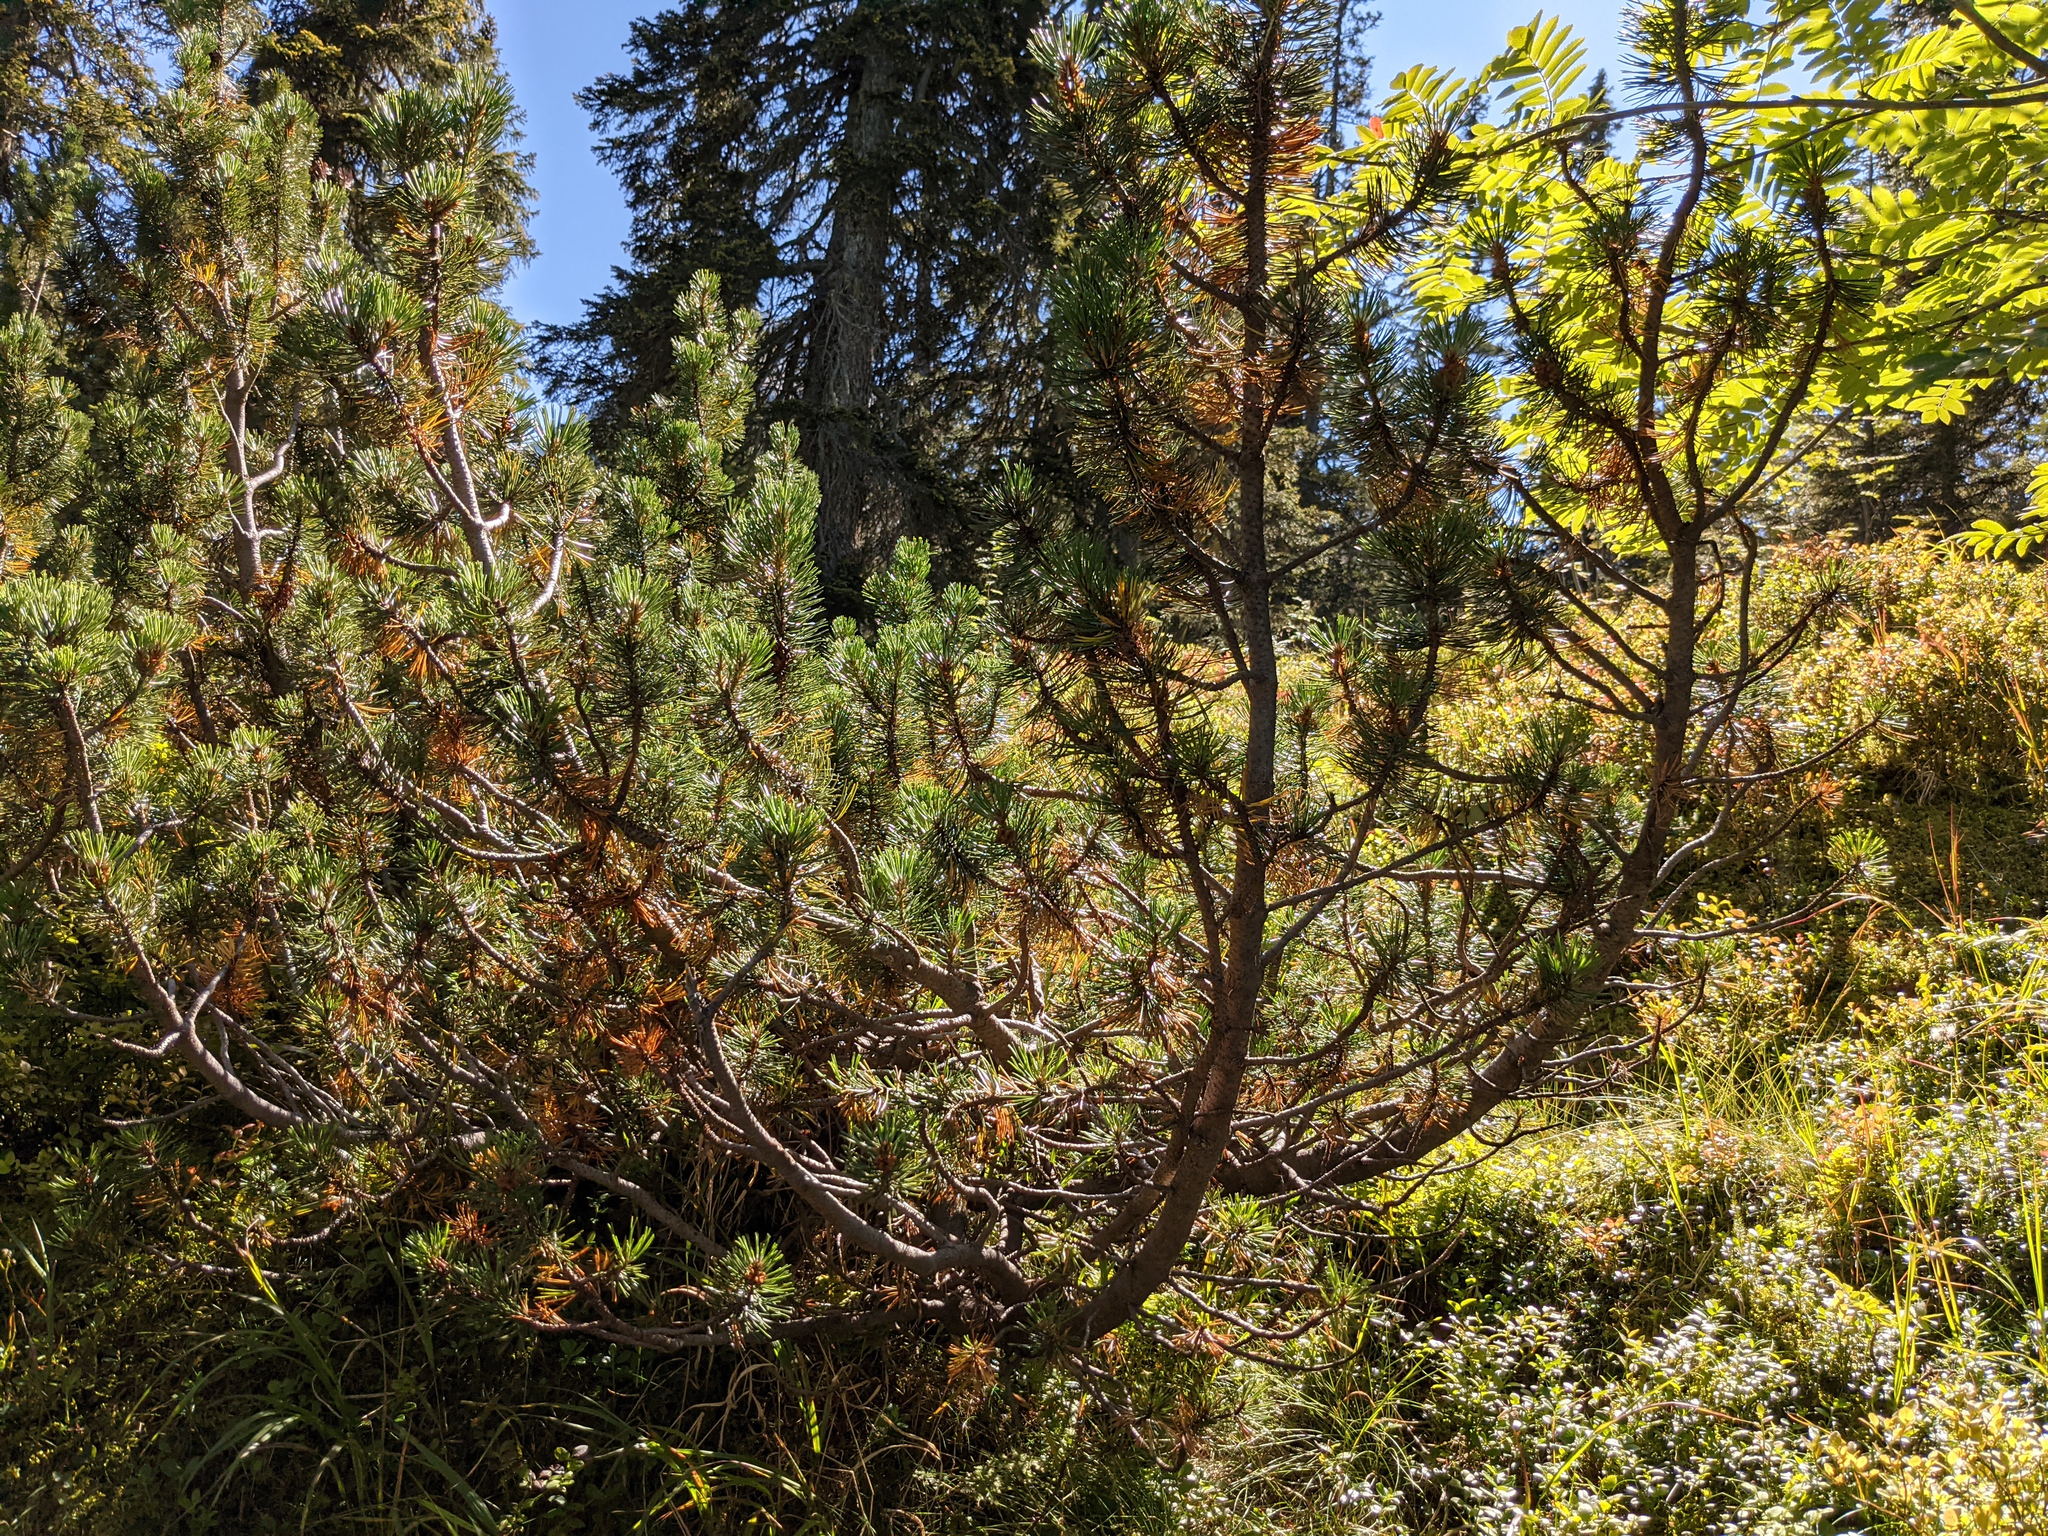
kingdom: Plantae
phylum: Tracheophyta
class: Pinopsida
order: Pinales
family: Pinaceae
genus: Pinus
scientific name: Pinus mugo
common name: Mugo pine
